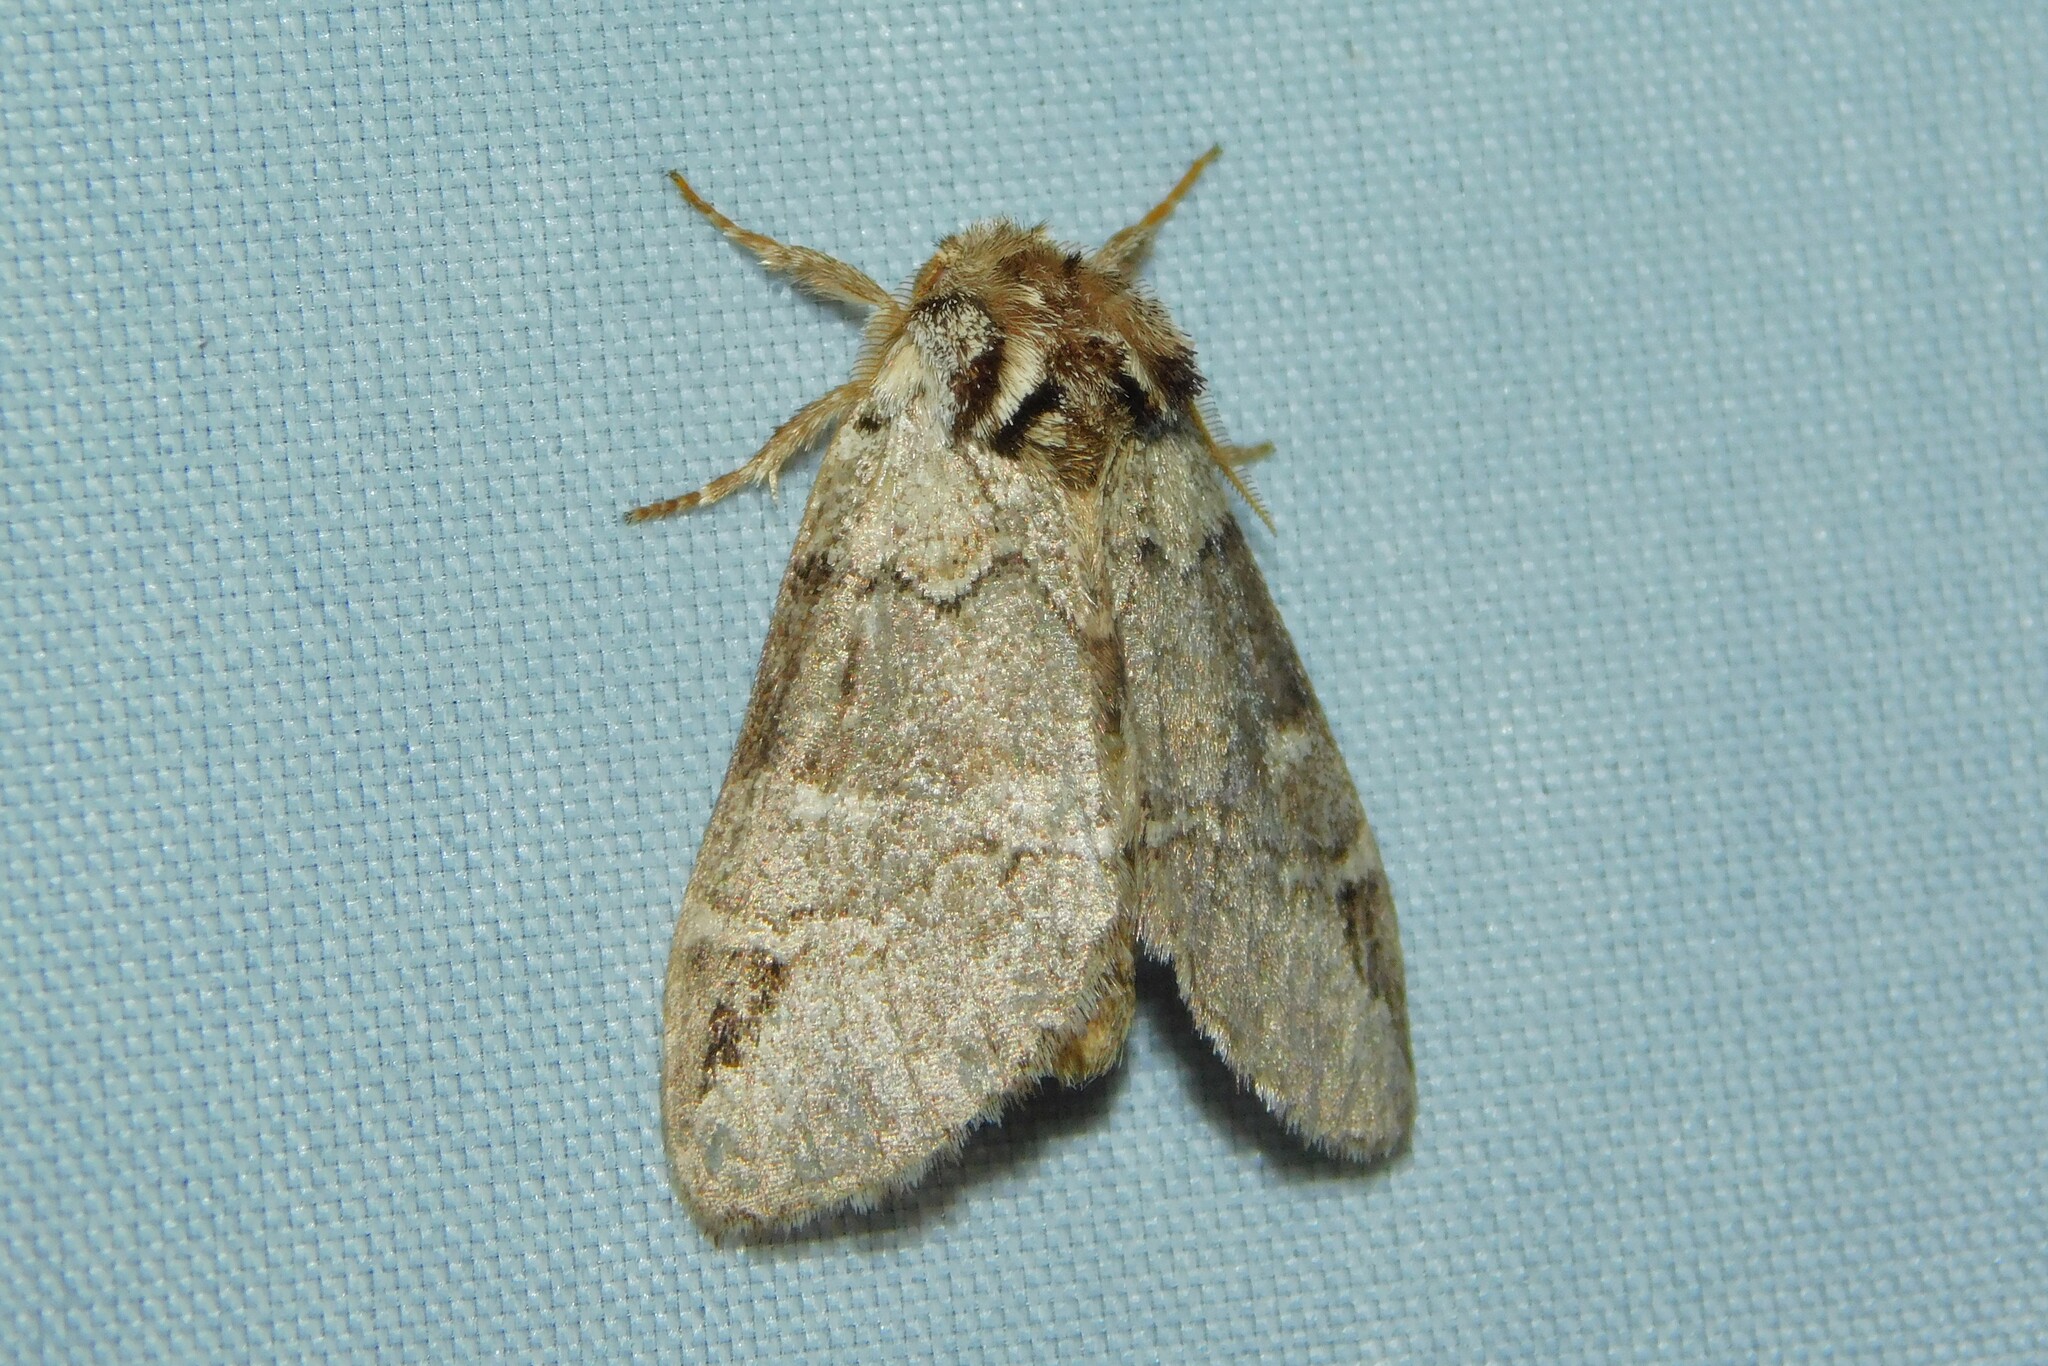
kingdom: Animalia
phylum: Arthropoda
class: Insecta
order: Lepidoptera
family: Notodontidae
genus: Drymonia
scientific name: Drymonia obliterata
